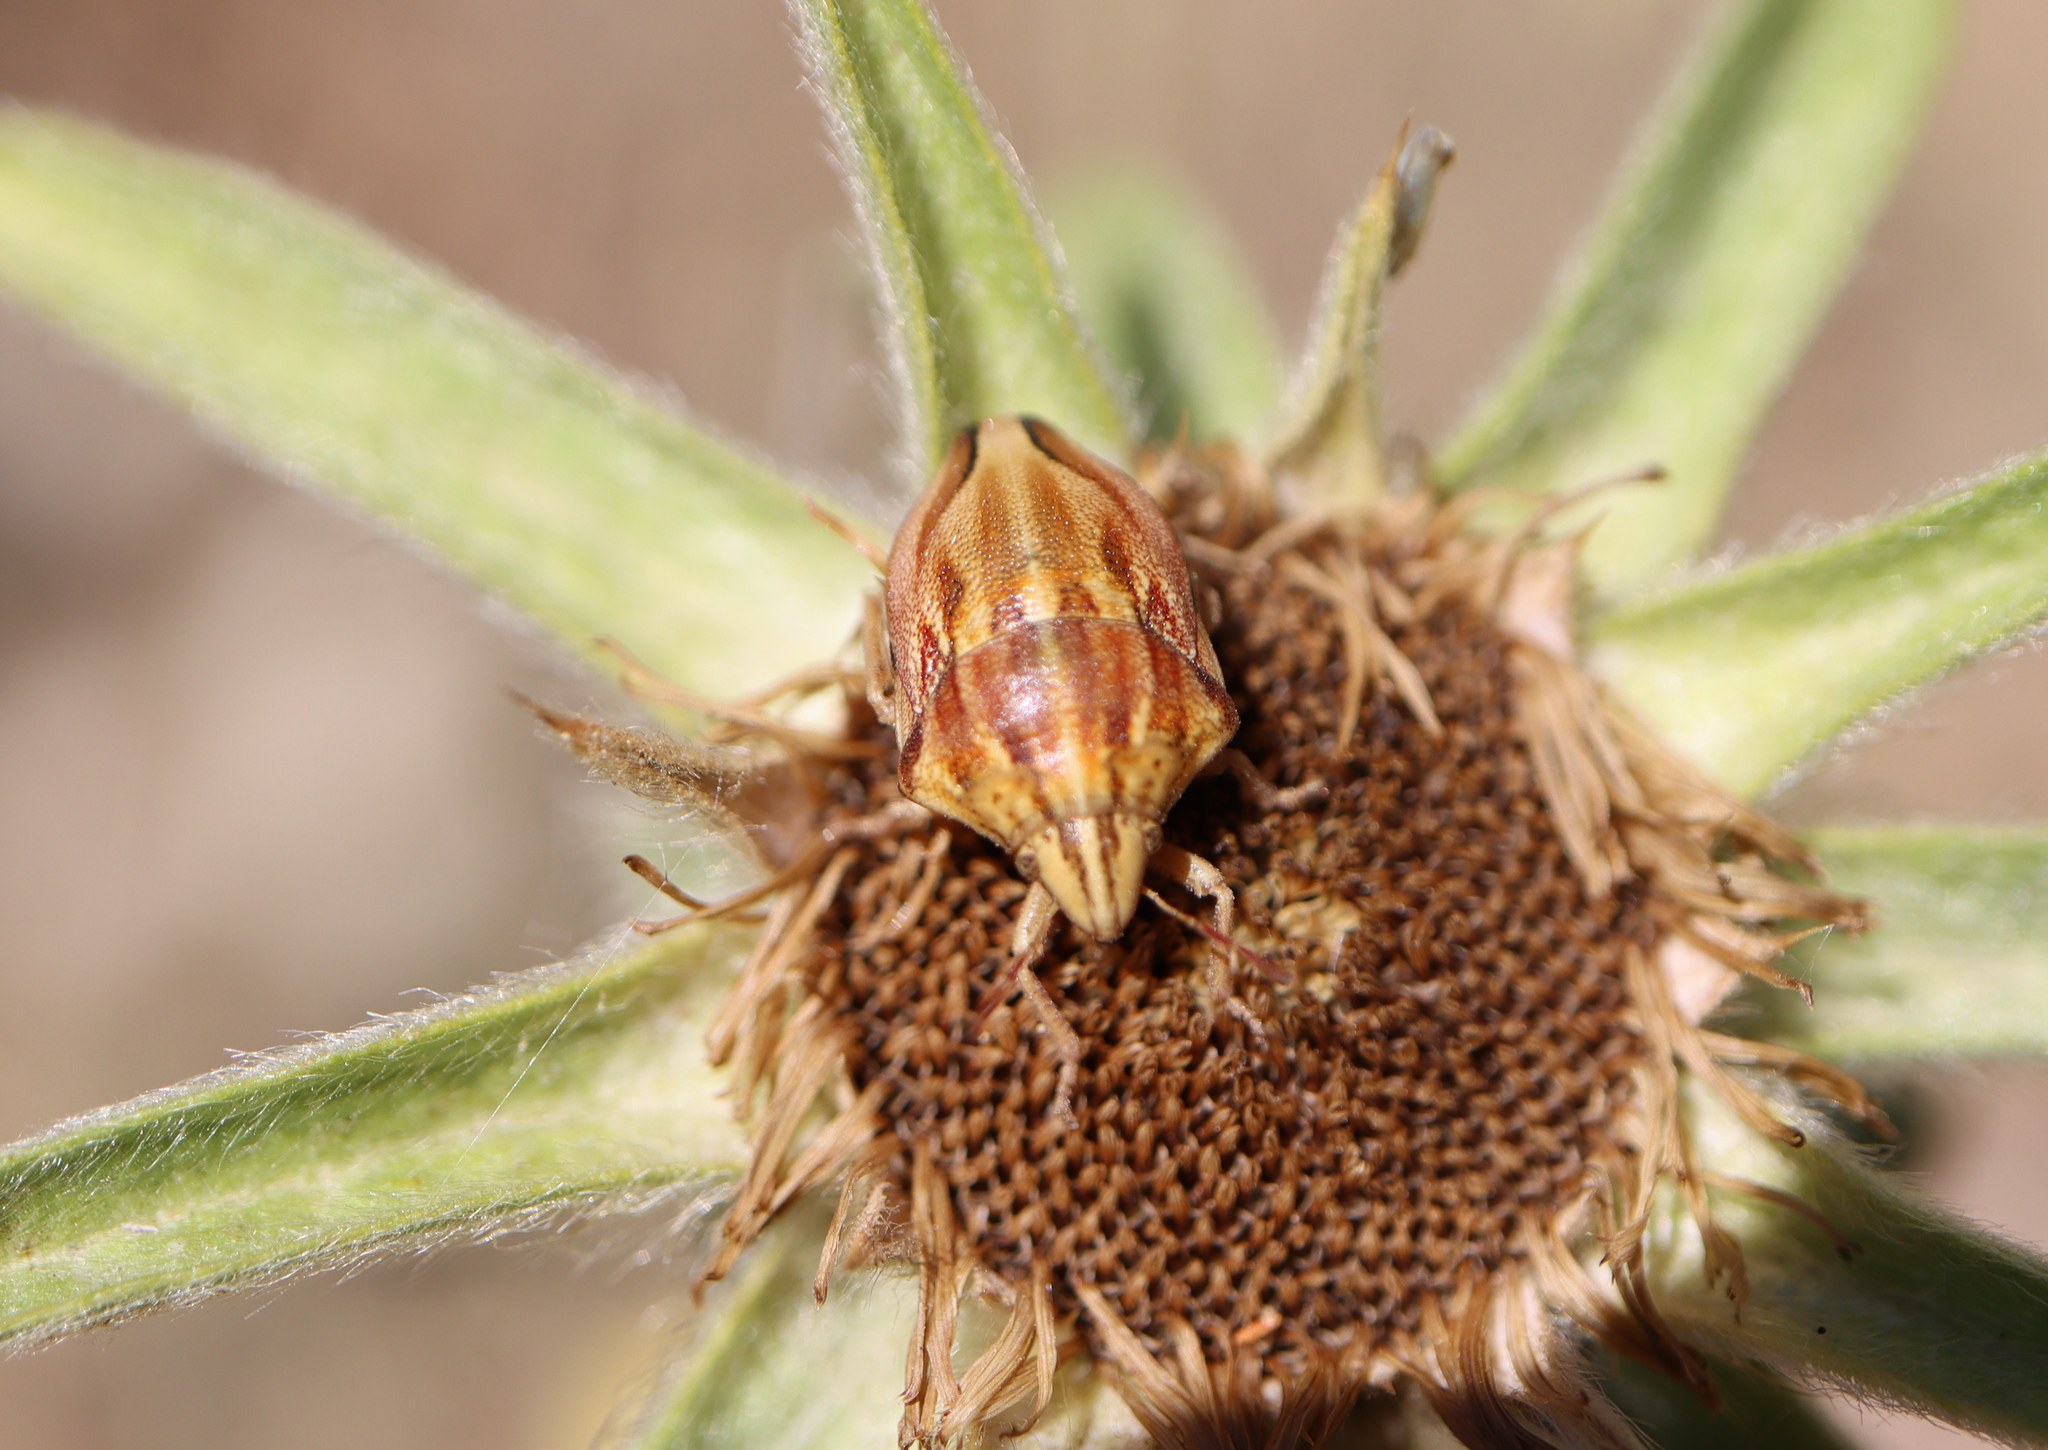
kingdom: Animalia
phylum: Arthropoda
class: Insecta
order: Hemiptera
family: Scutelleridae
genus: Odontotarsus
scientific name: Odontotarsus purpureolineatus
